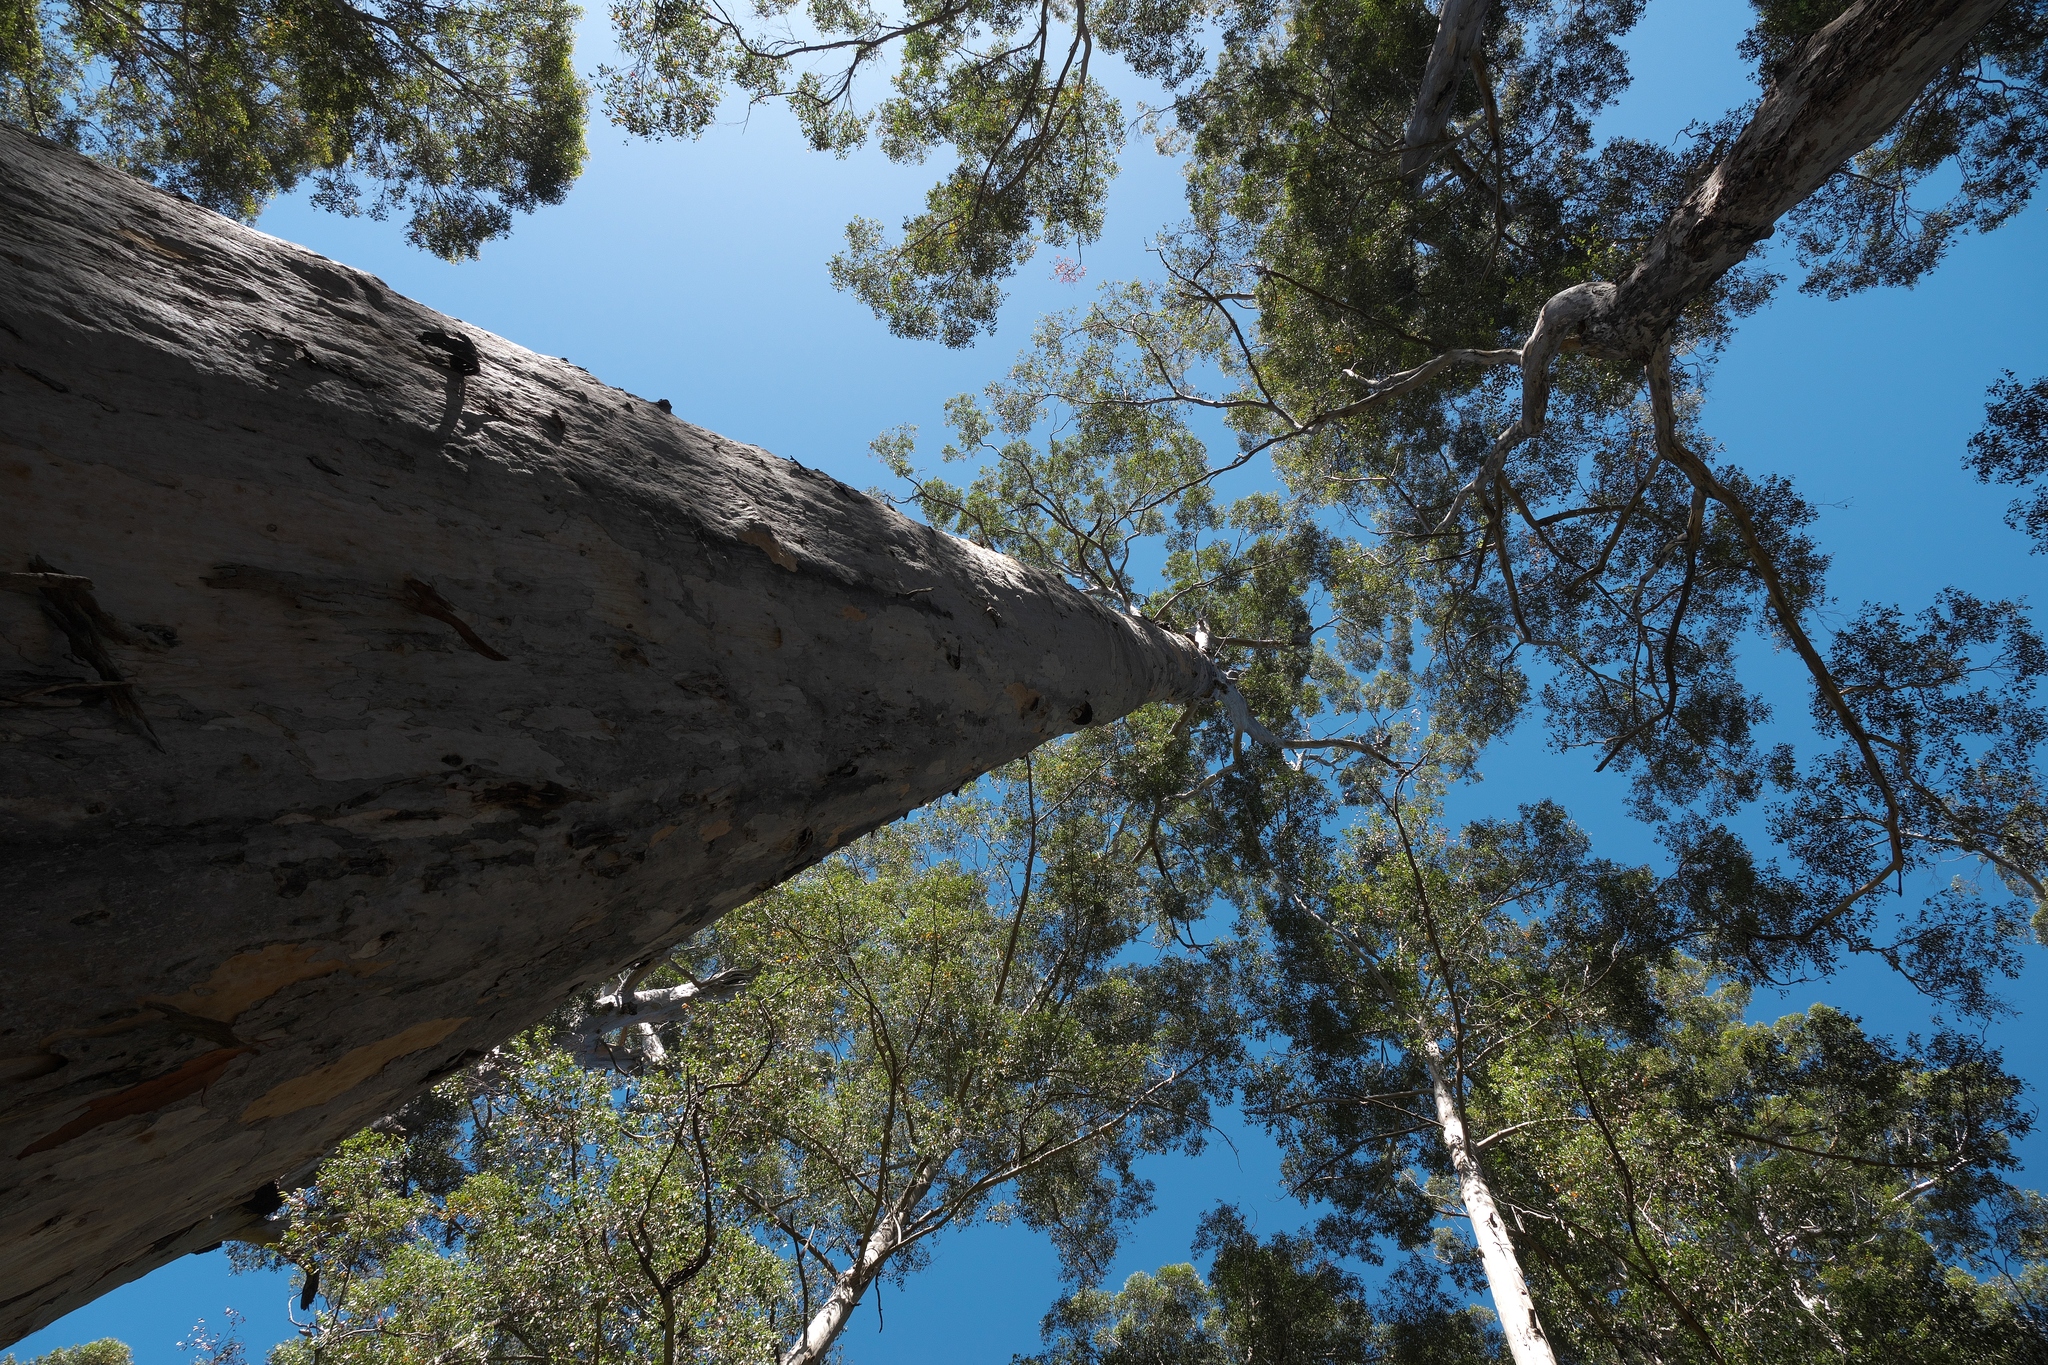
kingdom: Plantae
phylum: Tracheophyta
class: Magnoliopsida
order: Myrtales
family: Myrtaceae
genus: Eucalyptus
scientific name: Eucalyptus diversicolor
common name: Karri
